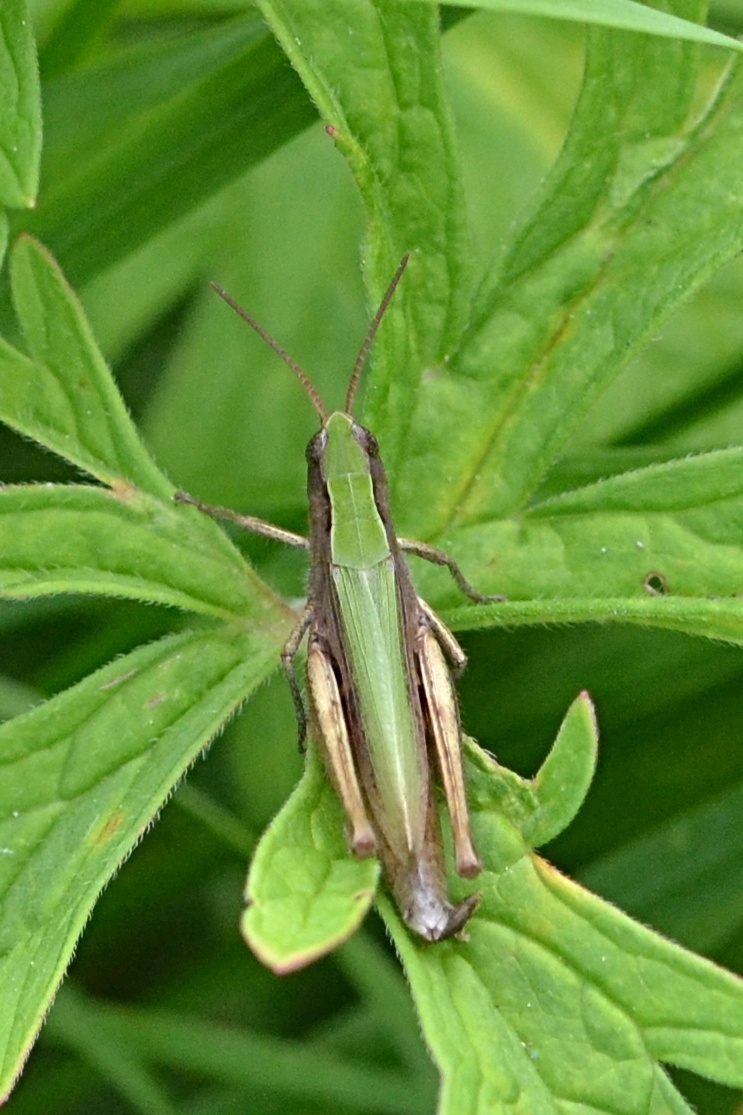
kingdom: Animalia
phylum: Arthropoda
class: Insecta
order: Orthoptera
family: Acrididae
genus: Chorthippus
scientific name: Chorthippus dorsatus
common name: Steppe grasshopper
